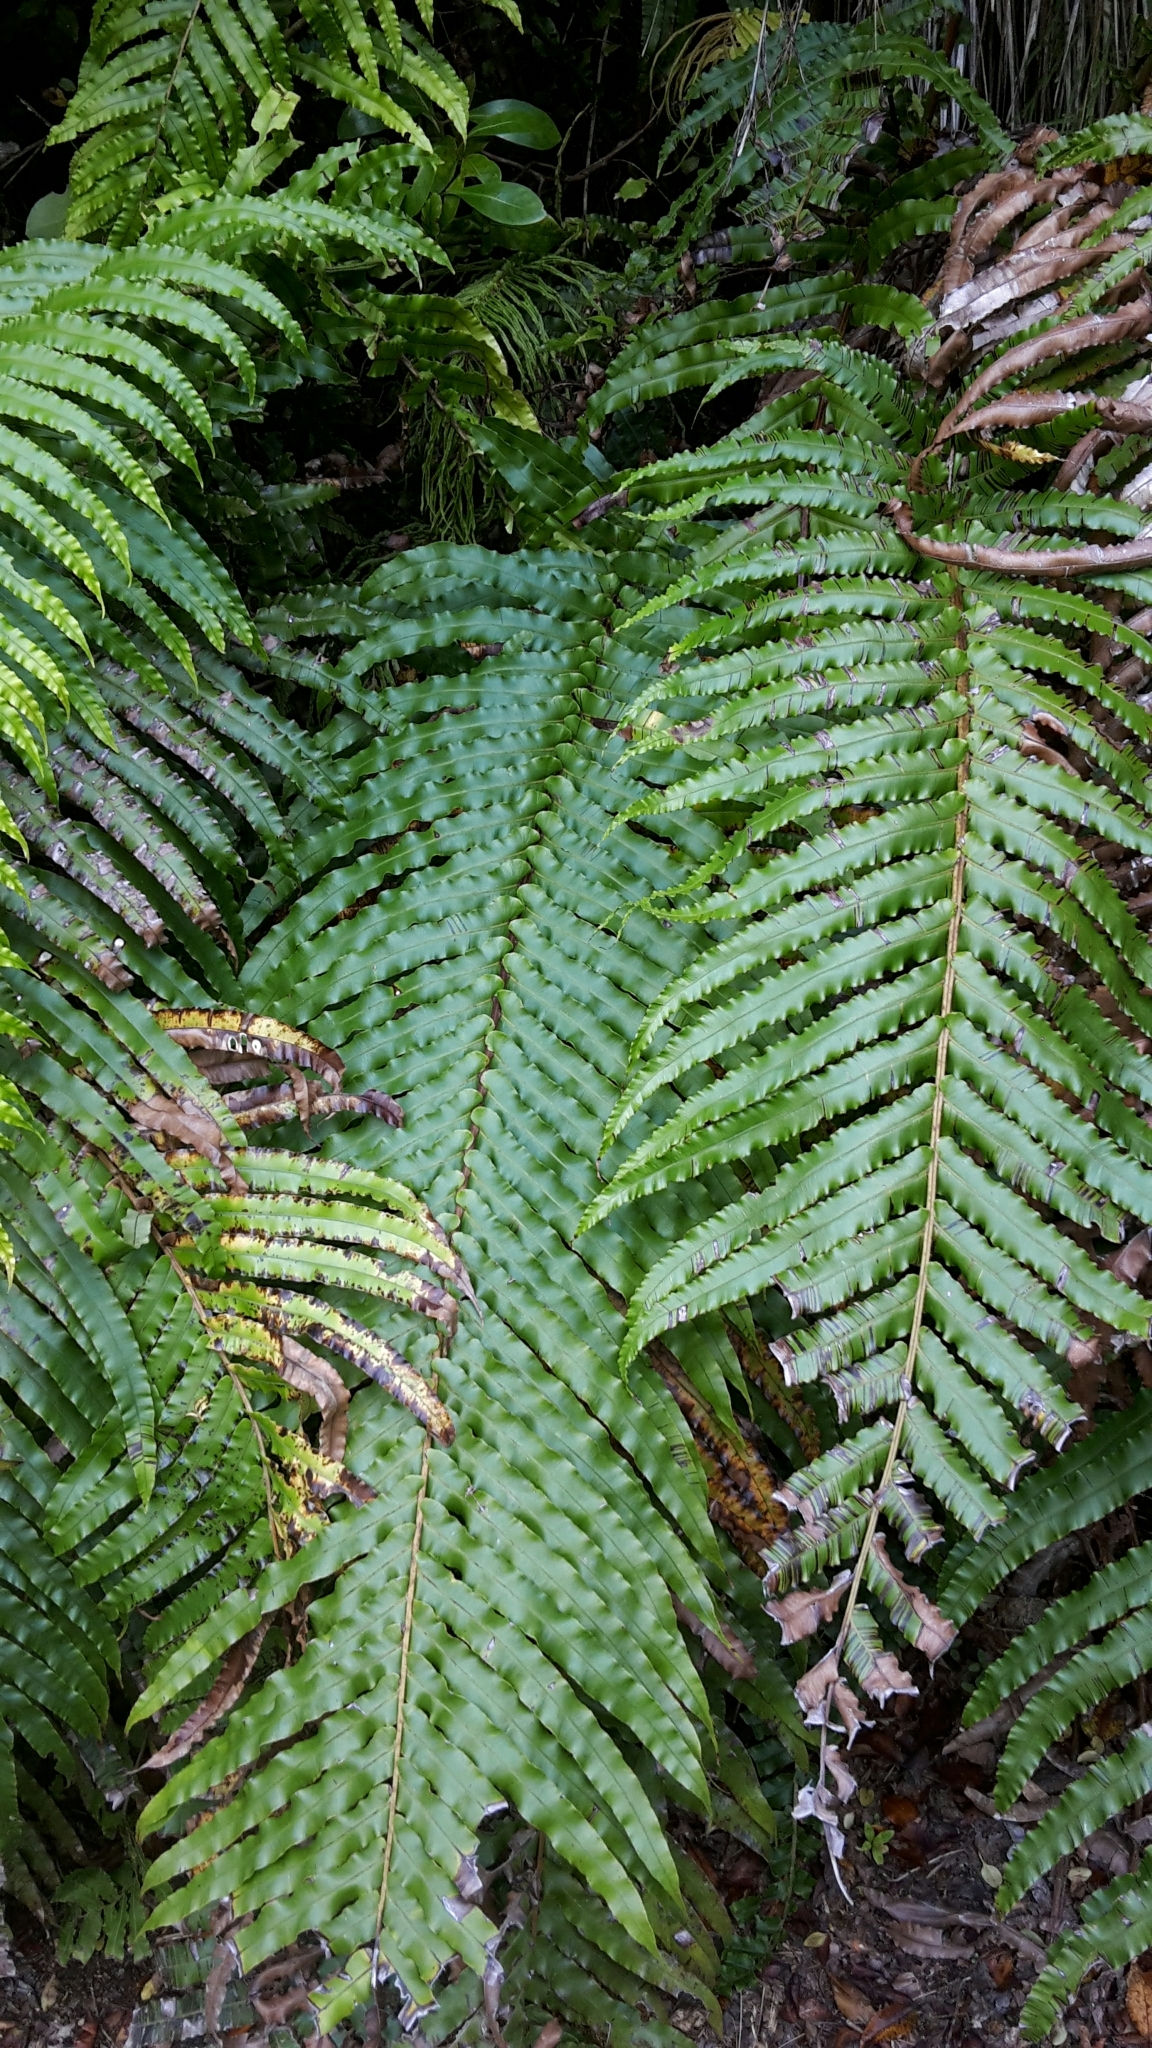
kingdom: Plantae
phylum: Tracheophyta
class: Polypodiopsida
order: Polypodiales
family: Blechnaceae
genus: Parablechnum
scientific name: Parablechnum novae-zelandiae
